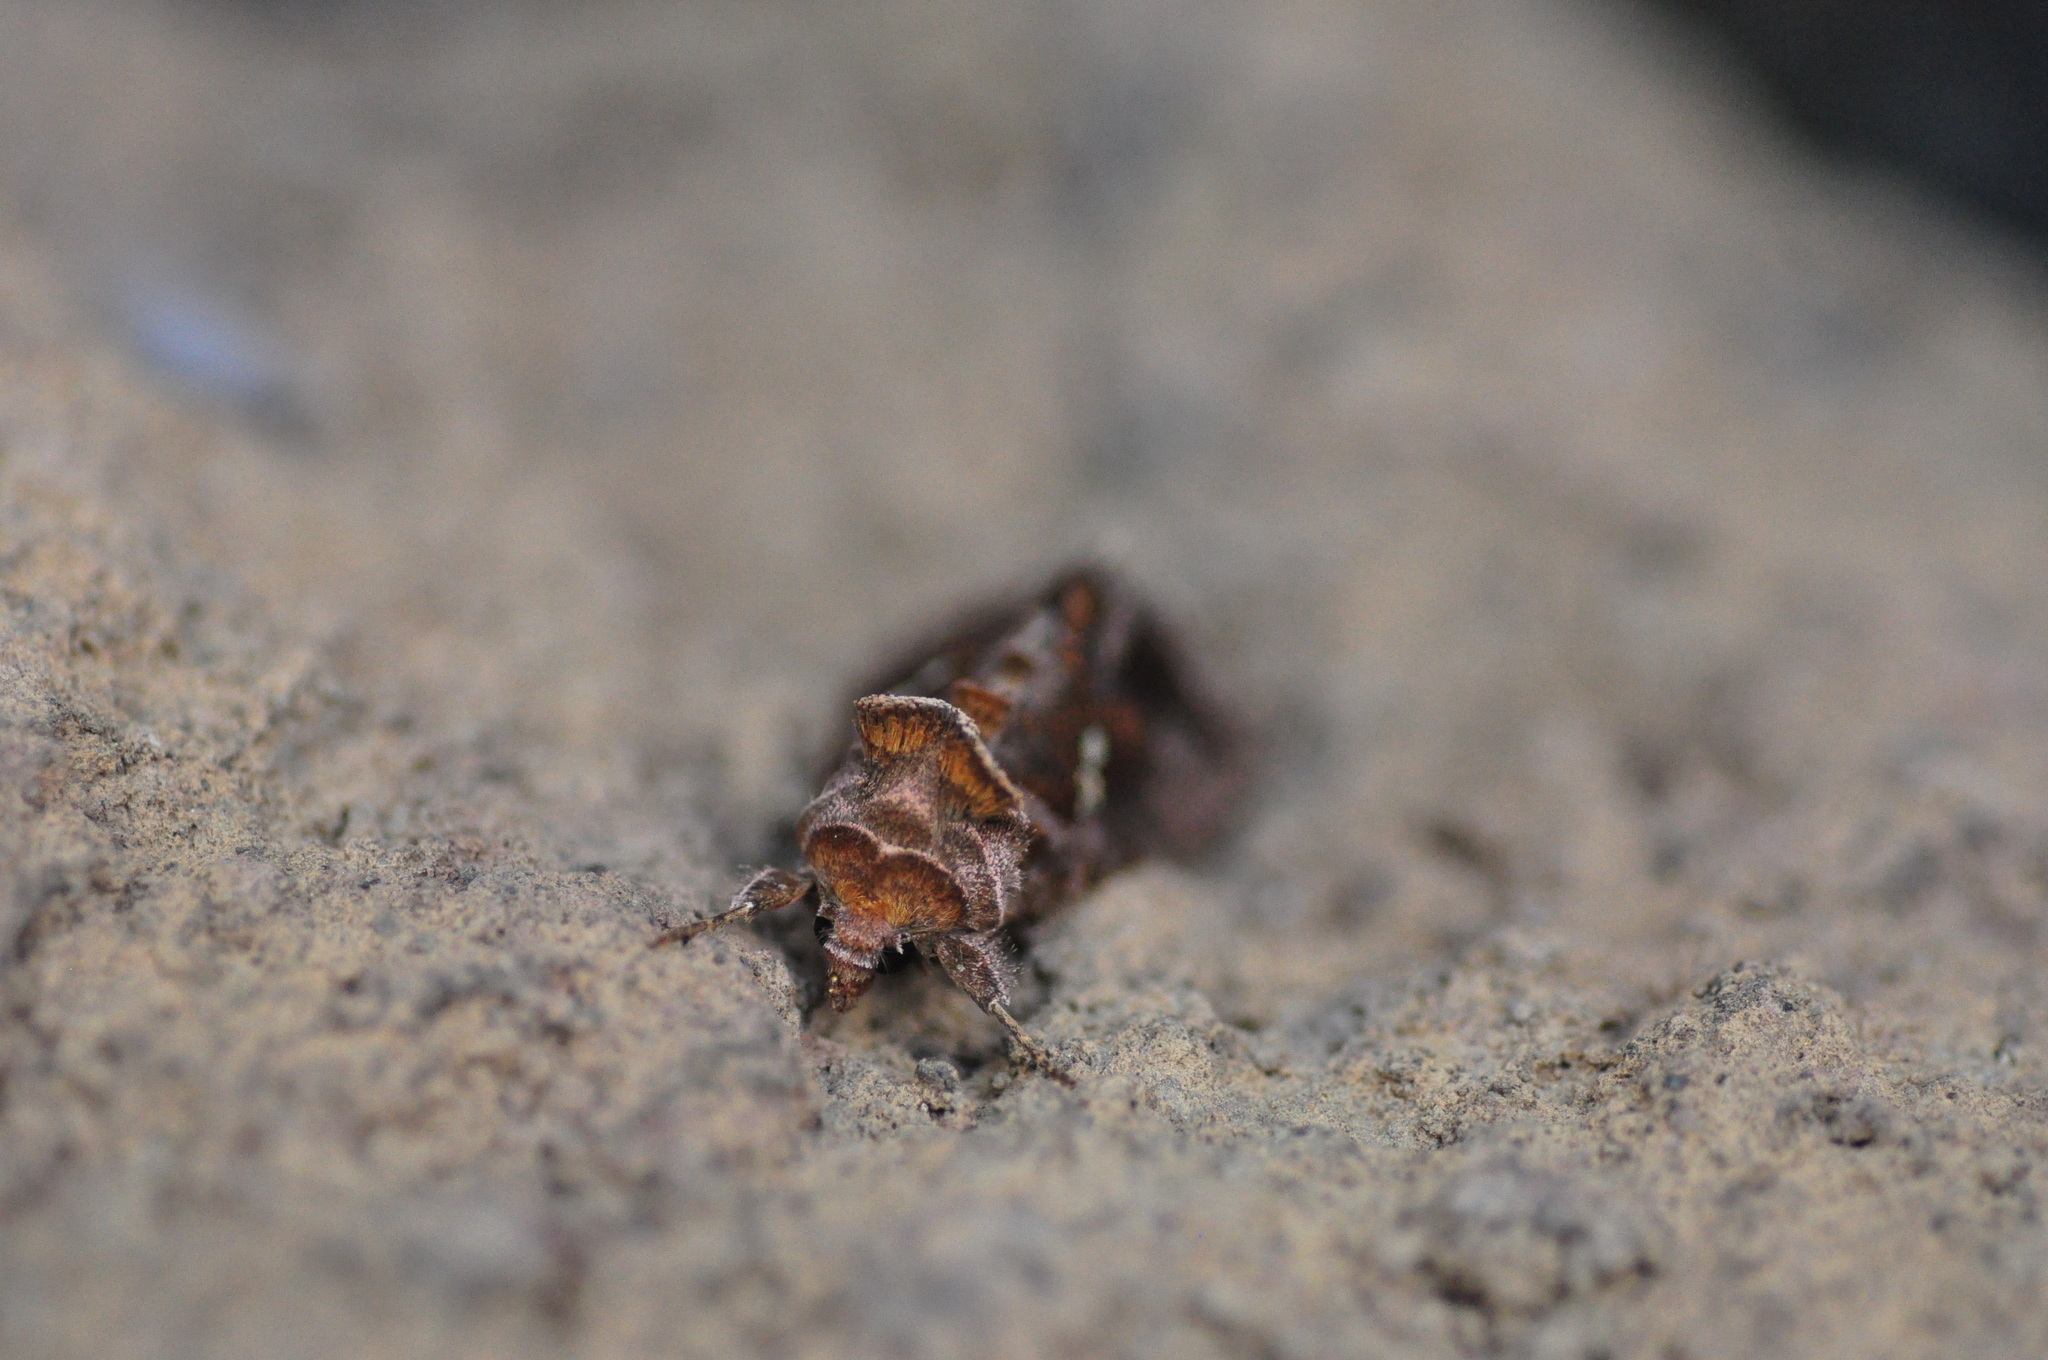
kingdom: Animalia
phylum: Arthropoda
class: Insecta
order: Lepidoptera
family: Noctuidae
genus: Chrysodeixis
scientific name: Chrysodeixis acuta
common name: Tunbridge wells gem
